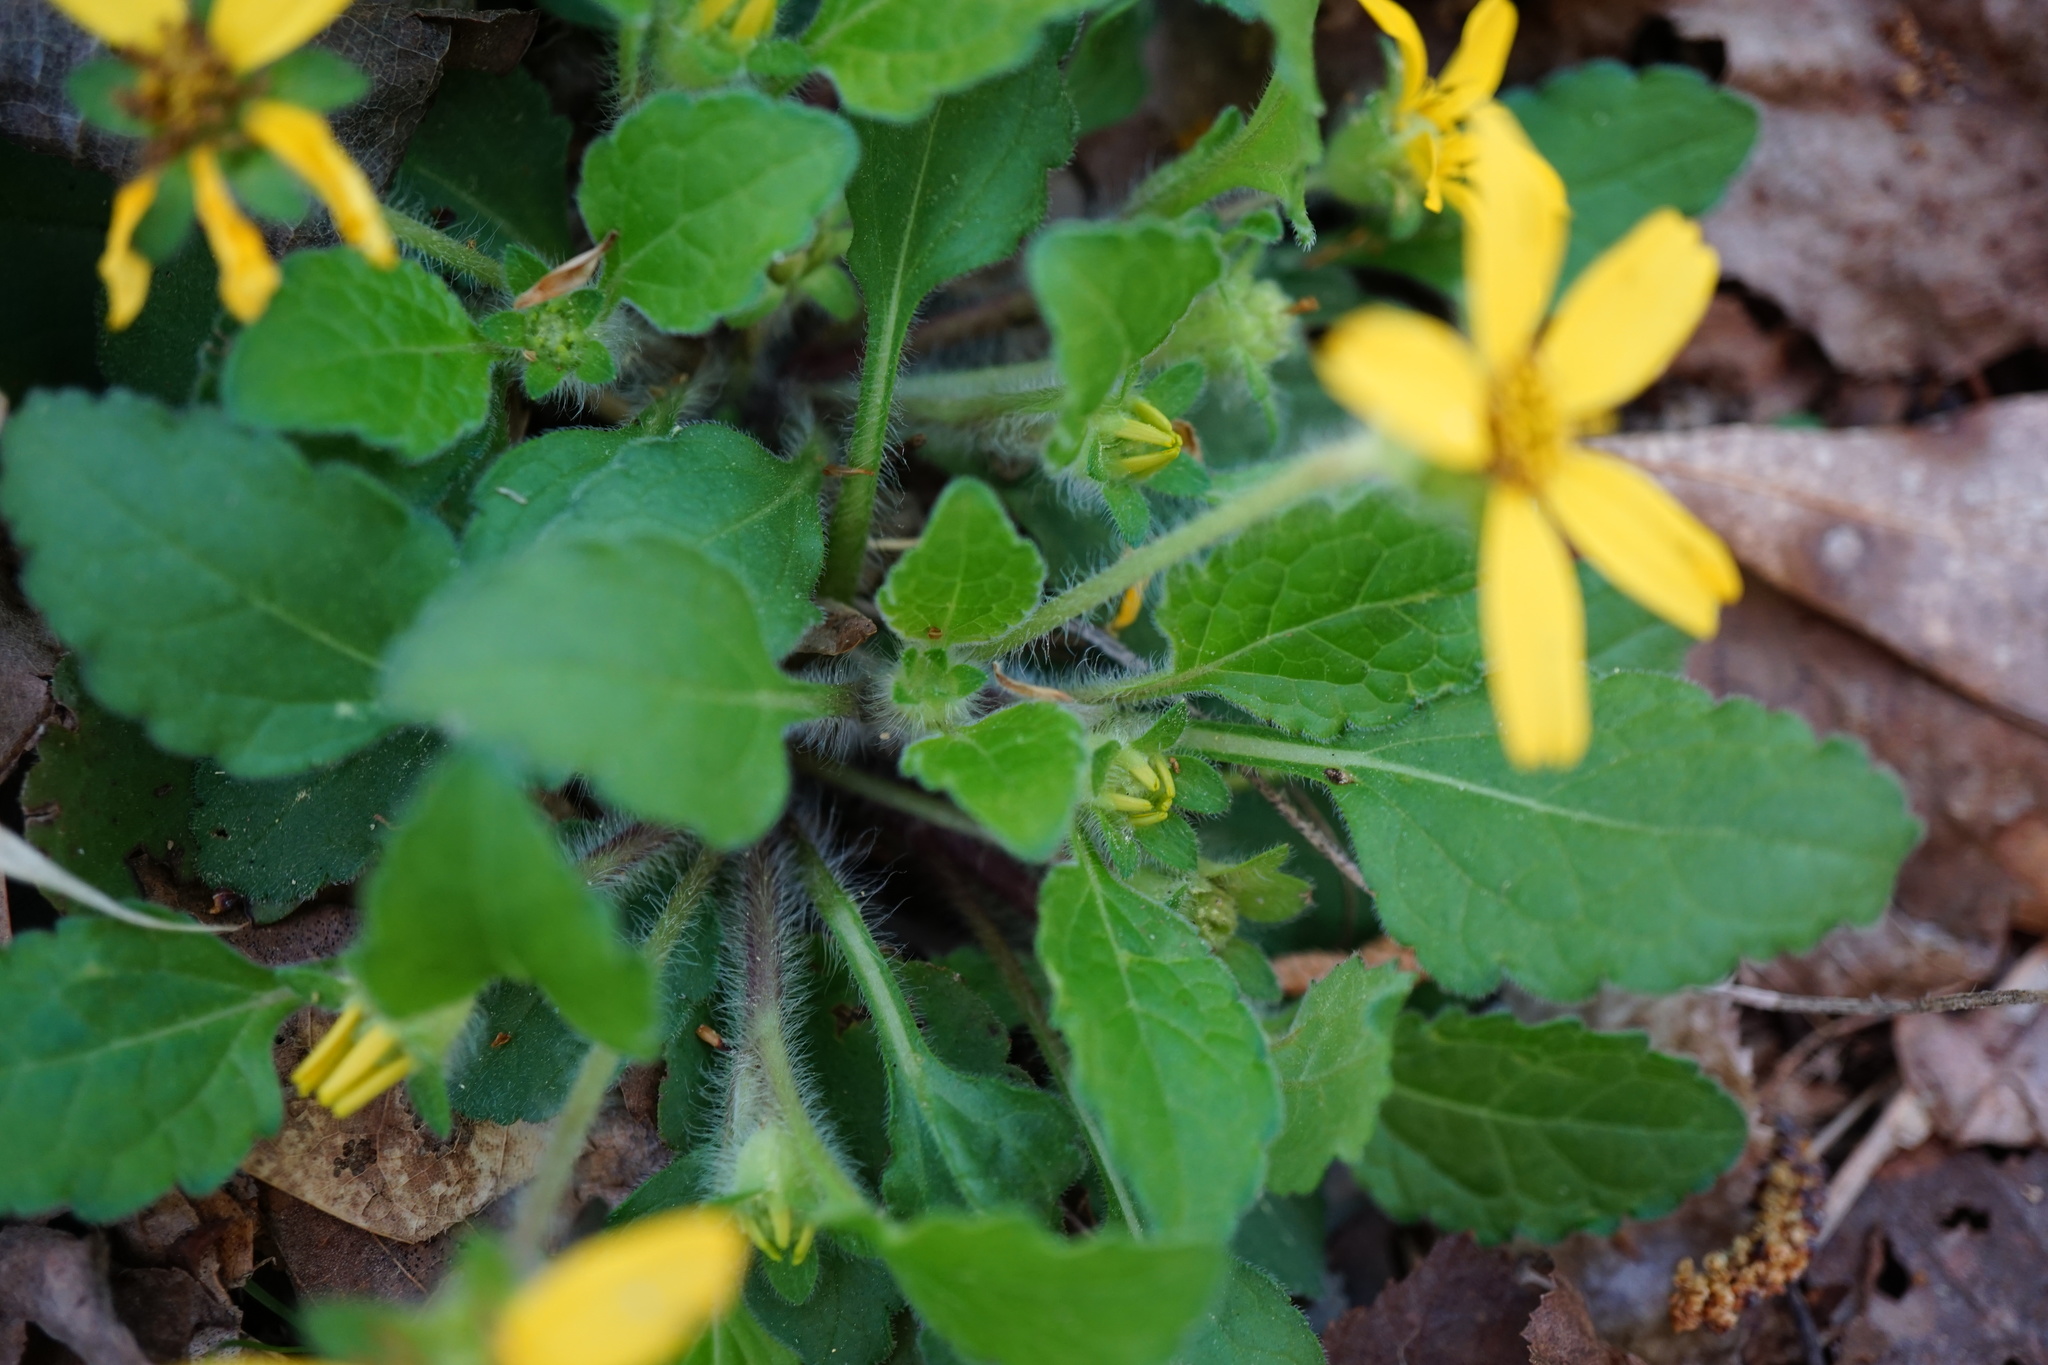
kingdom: Plantae
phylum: Tracheophyta
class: Magnoliopsida
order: Asterales
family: Asteraceae
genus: Chrysogonum
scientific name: Chrysogonum virginianum
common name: Golden-knee
